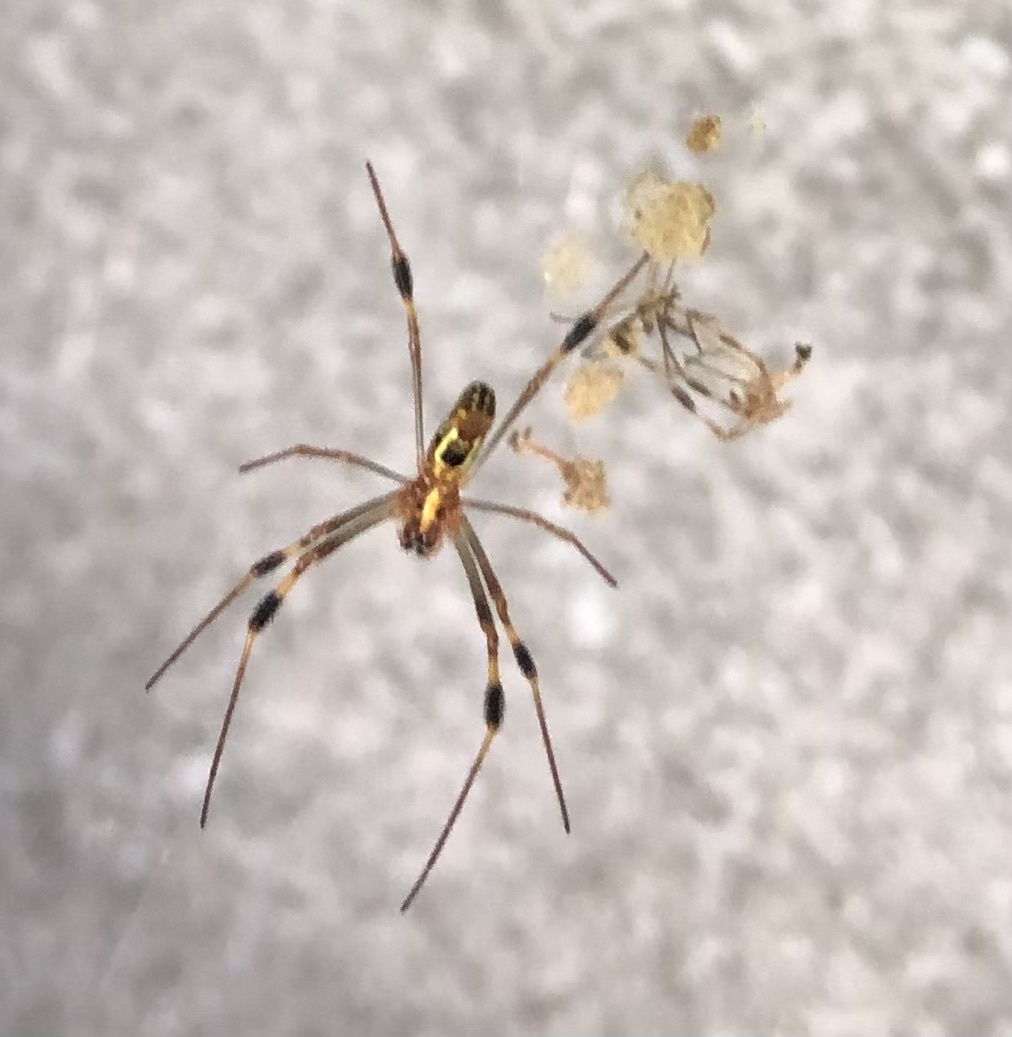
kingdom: Animalia
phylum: Arthropoda
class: Arachnida
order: Araneae
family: Araneidae
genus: Trichonephila
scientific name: Trichonephila clavipes
